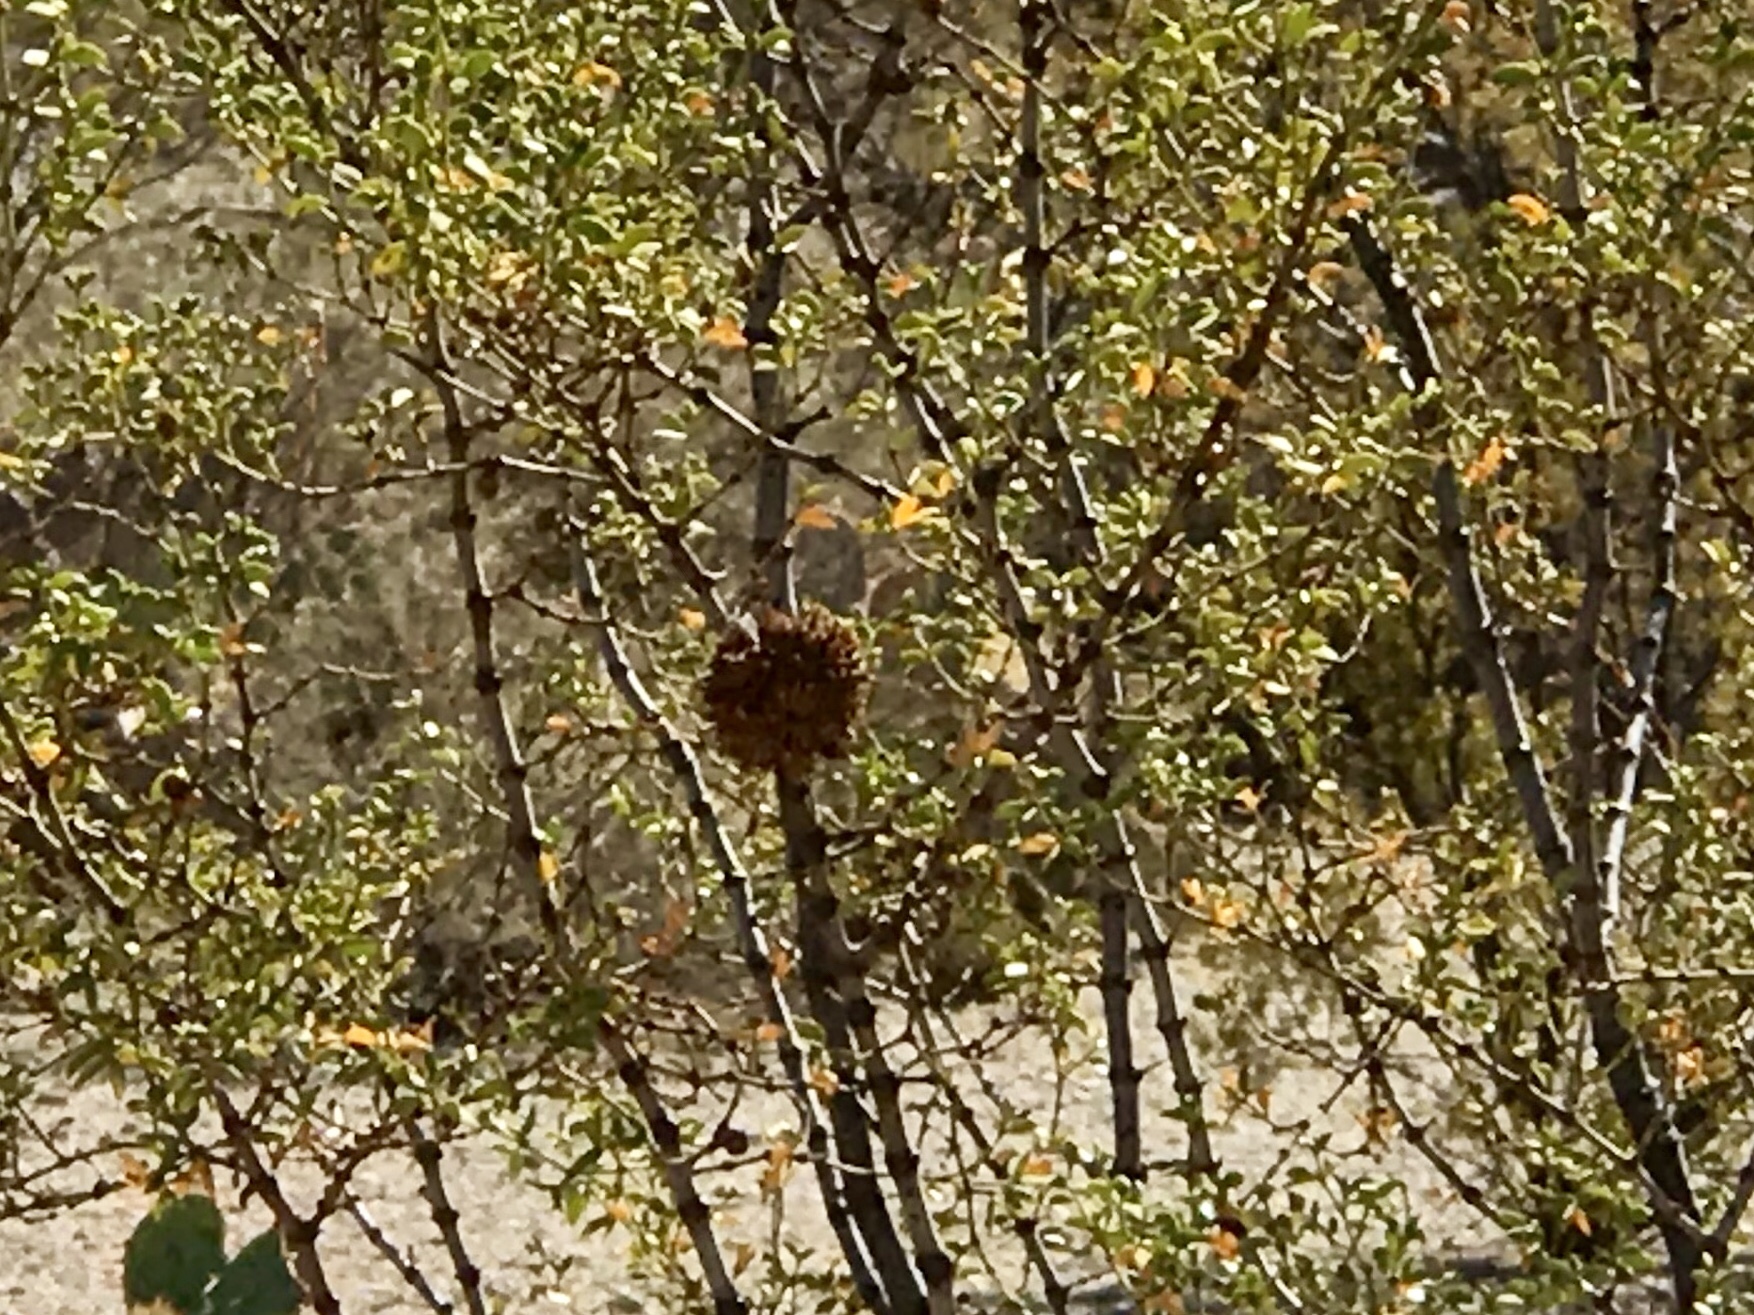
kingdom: Animalia
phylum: Arthropoda
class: Insecta
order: Diptera
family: Cecidomyiidae
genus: Asphondylia
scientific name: Asphondylia auripila
